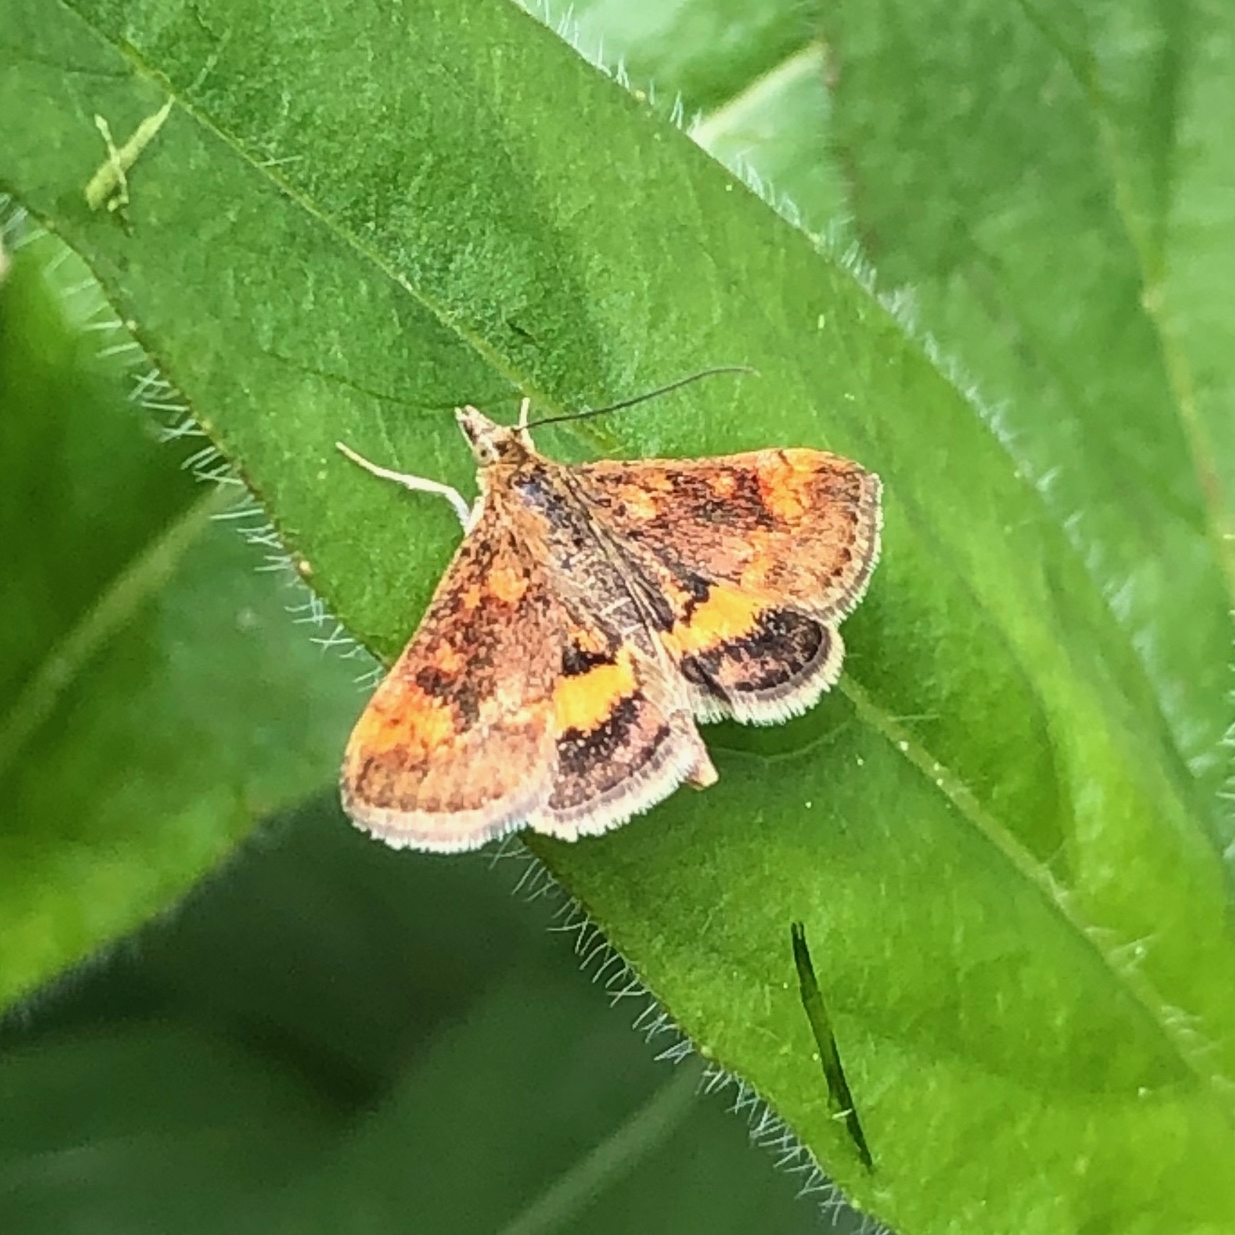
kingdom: Animalia
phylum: Arthropoda
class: Insecta
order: Lepidoptera
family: Crambidae
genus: Pyrausta
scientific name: Pyrausta orphisalis
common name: Orange mint moth
